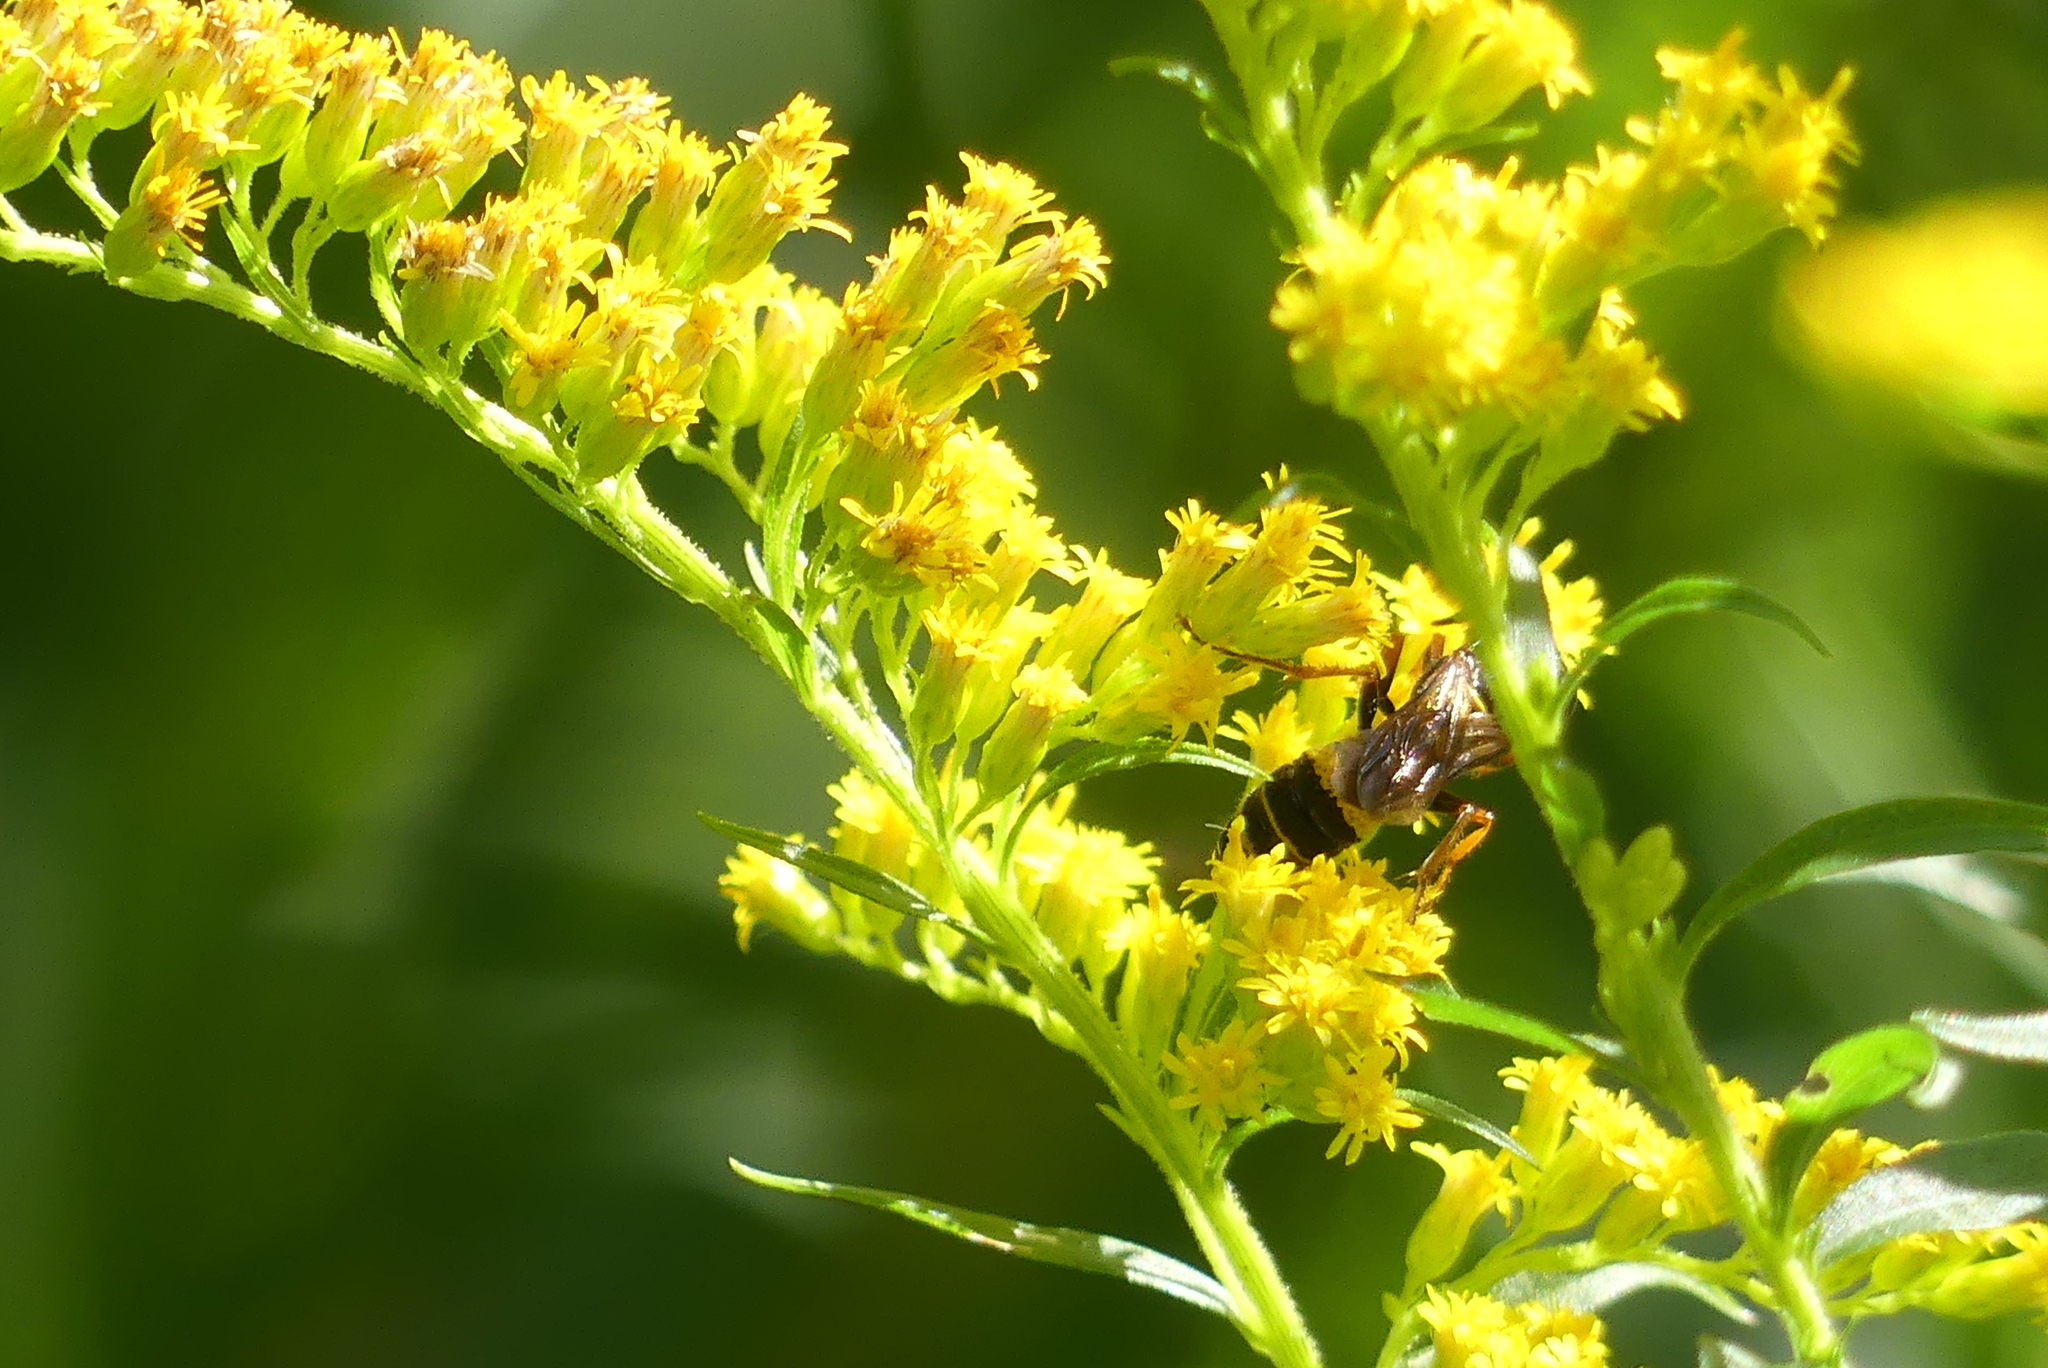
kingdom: Animalia
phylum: Arthropoda
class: Insecta
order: Hymenoptera
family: Crabronidae
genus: Philanthus
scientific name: Philanthus gibbosus
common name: Humped beewolf
